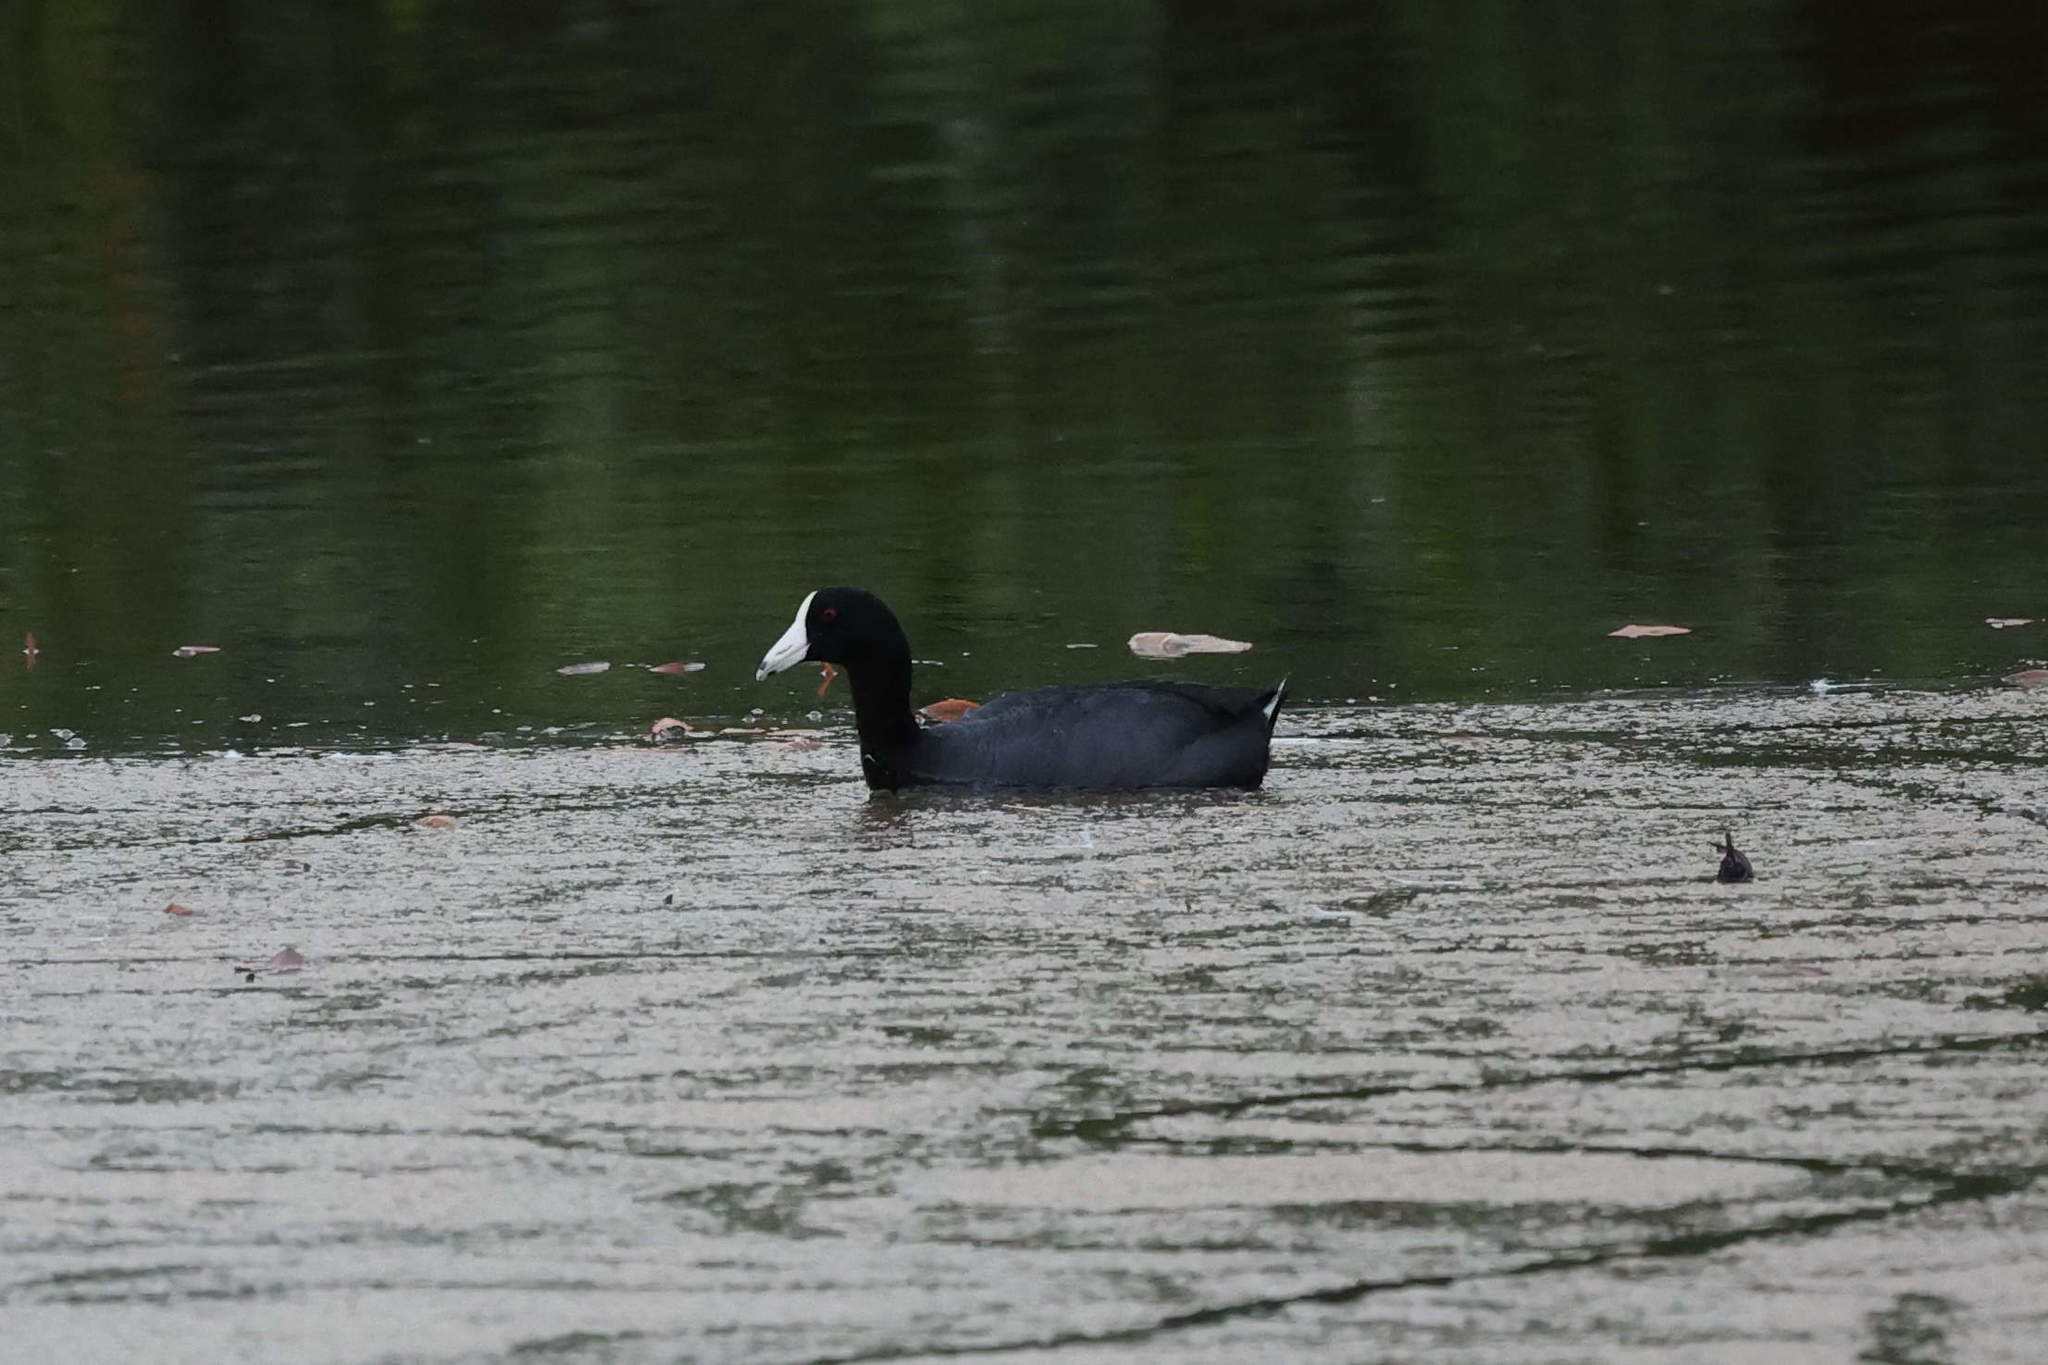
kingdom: Animalia
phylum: Chordata
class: Aves
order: Gruiformes
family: Rallidae
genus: Fulica
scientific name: Fulica americana
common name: American coot
